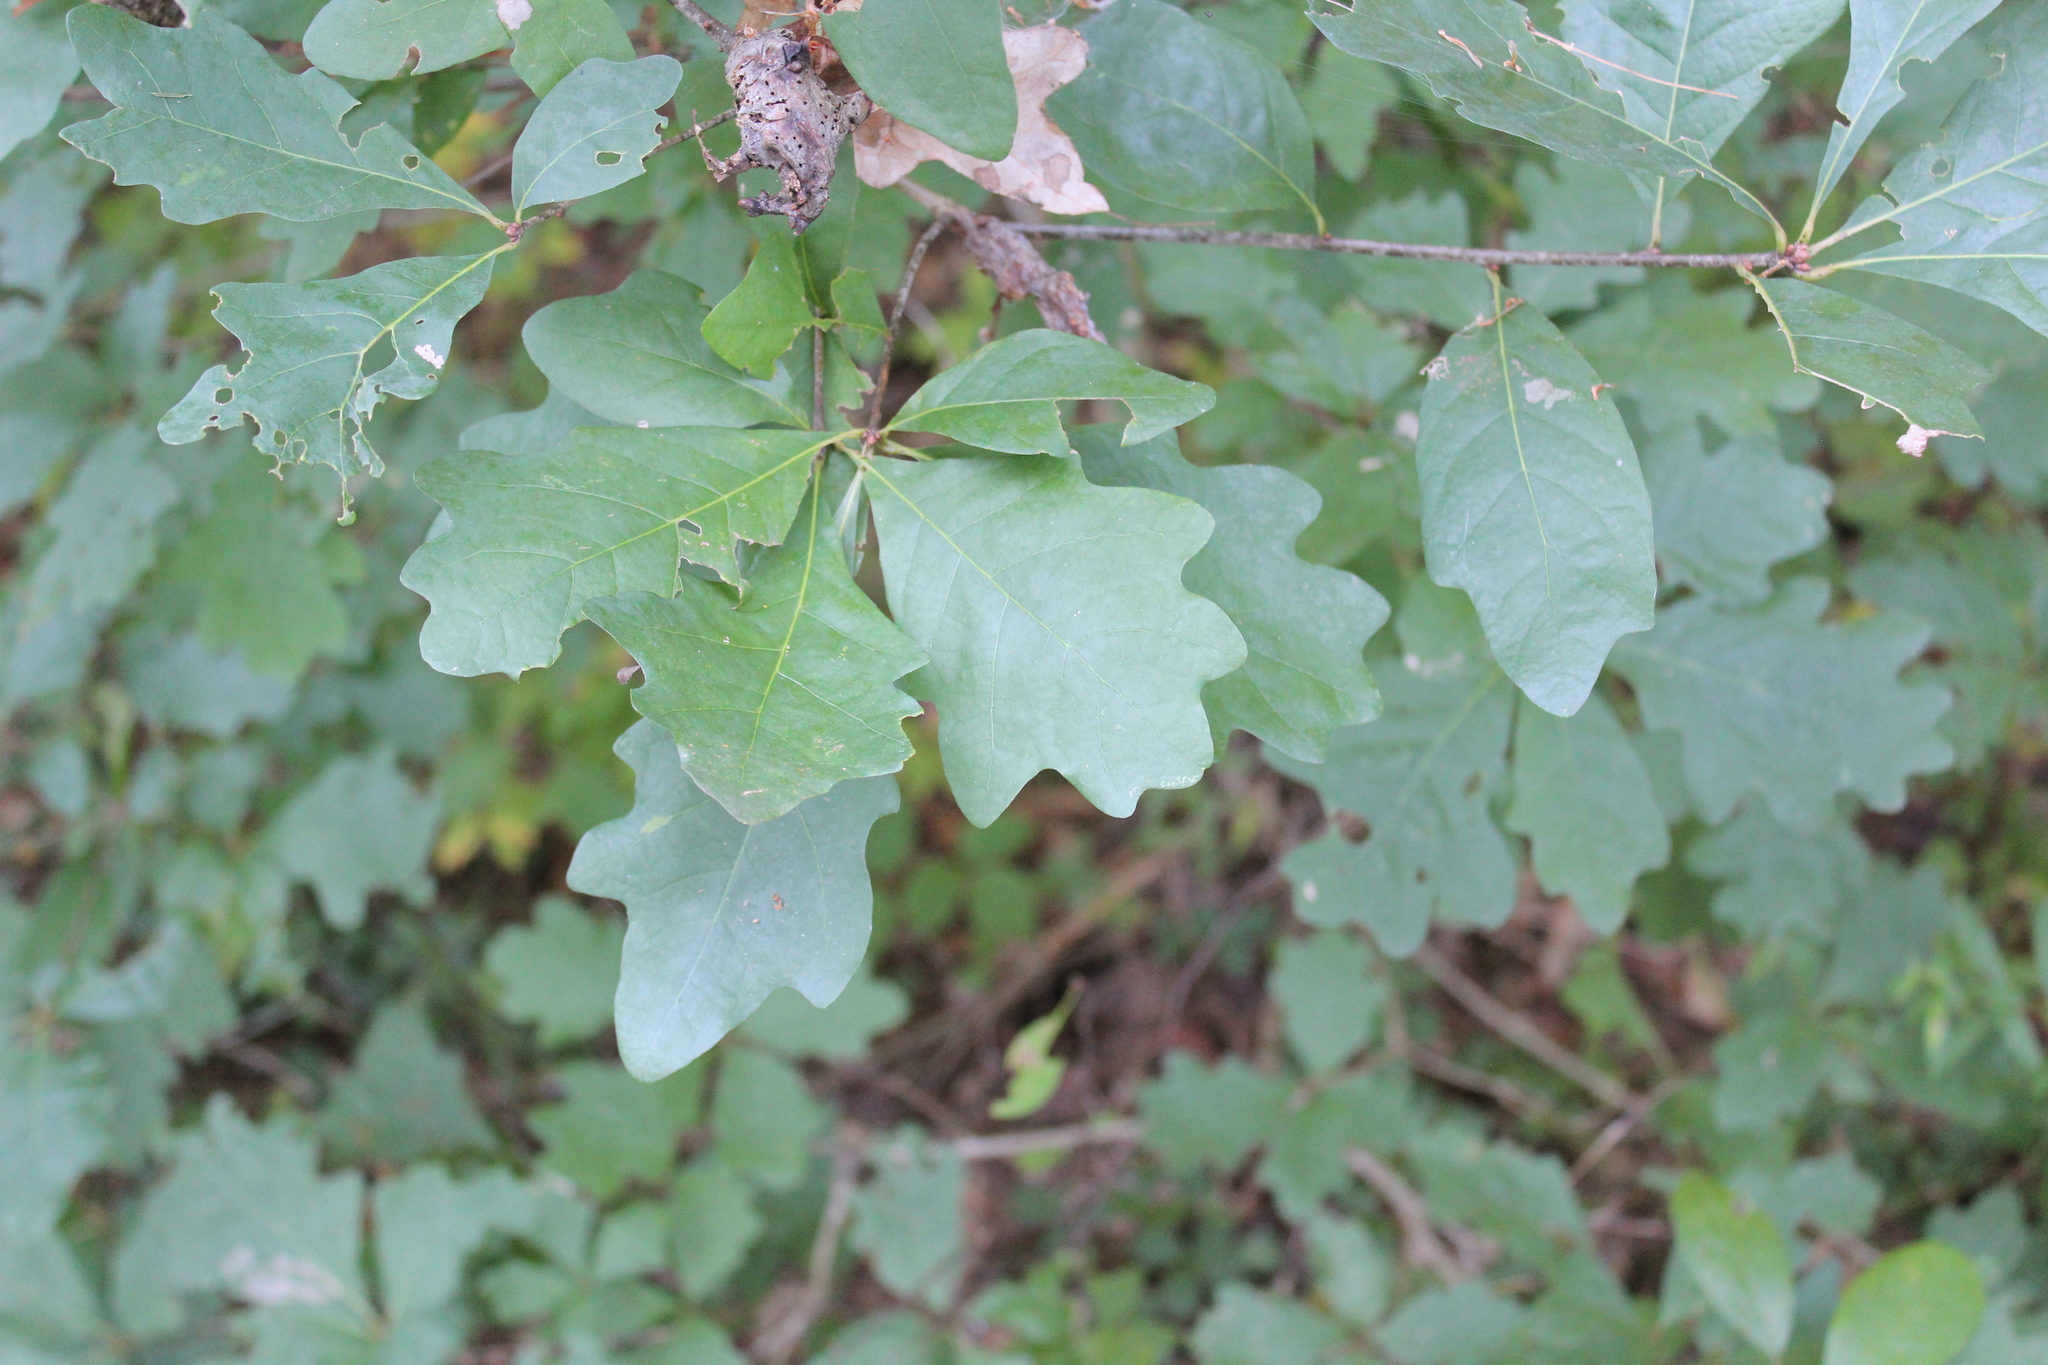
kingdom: Plantae
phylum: Tracheophyta
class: Magnoliopsida
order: Fagales
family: Fagaceae
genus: Quercus
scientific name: Quercus alba
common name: White oak
